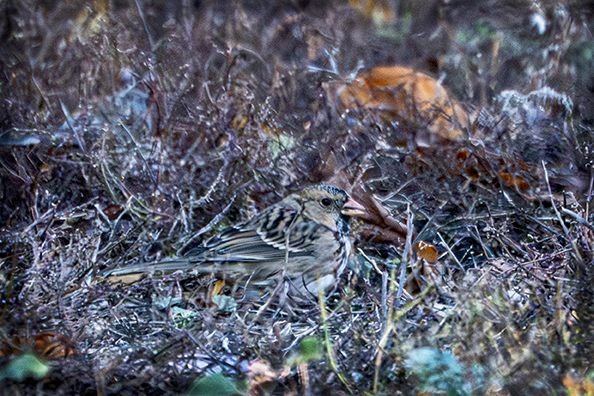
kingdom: Animalia
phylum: Chordata
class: Aves
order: Passeriformes
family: Passerellidae
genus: Zonotrichia
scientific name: Zonotrichia querula
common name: Harris's sparrow
